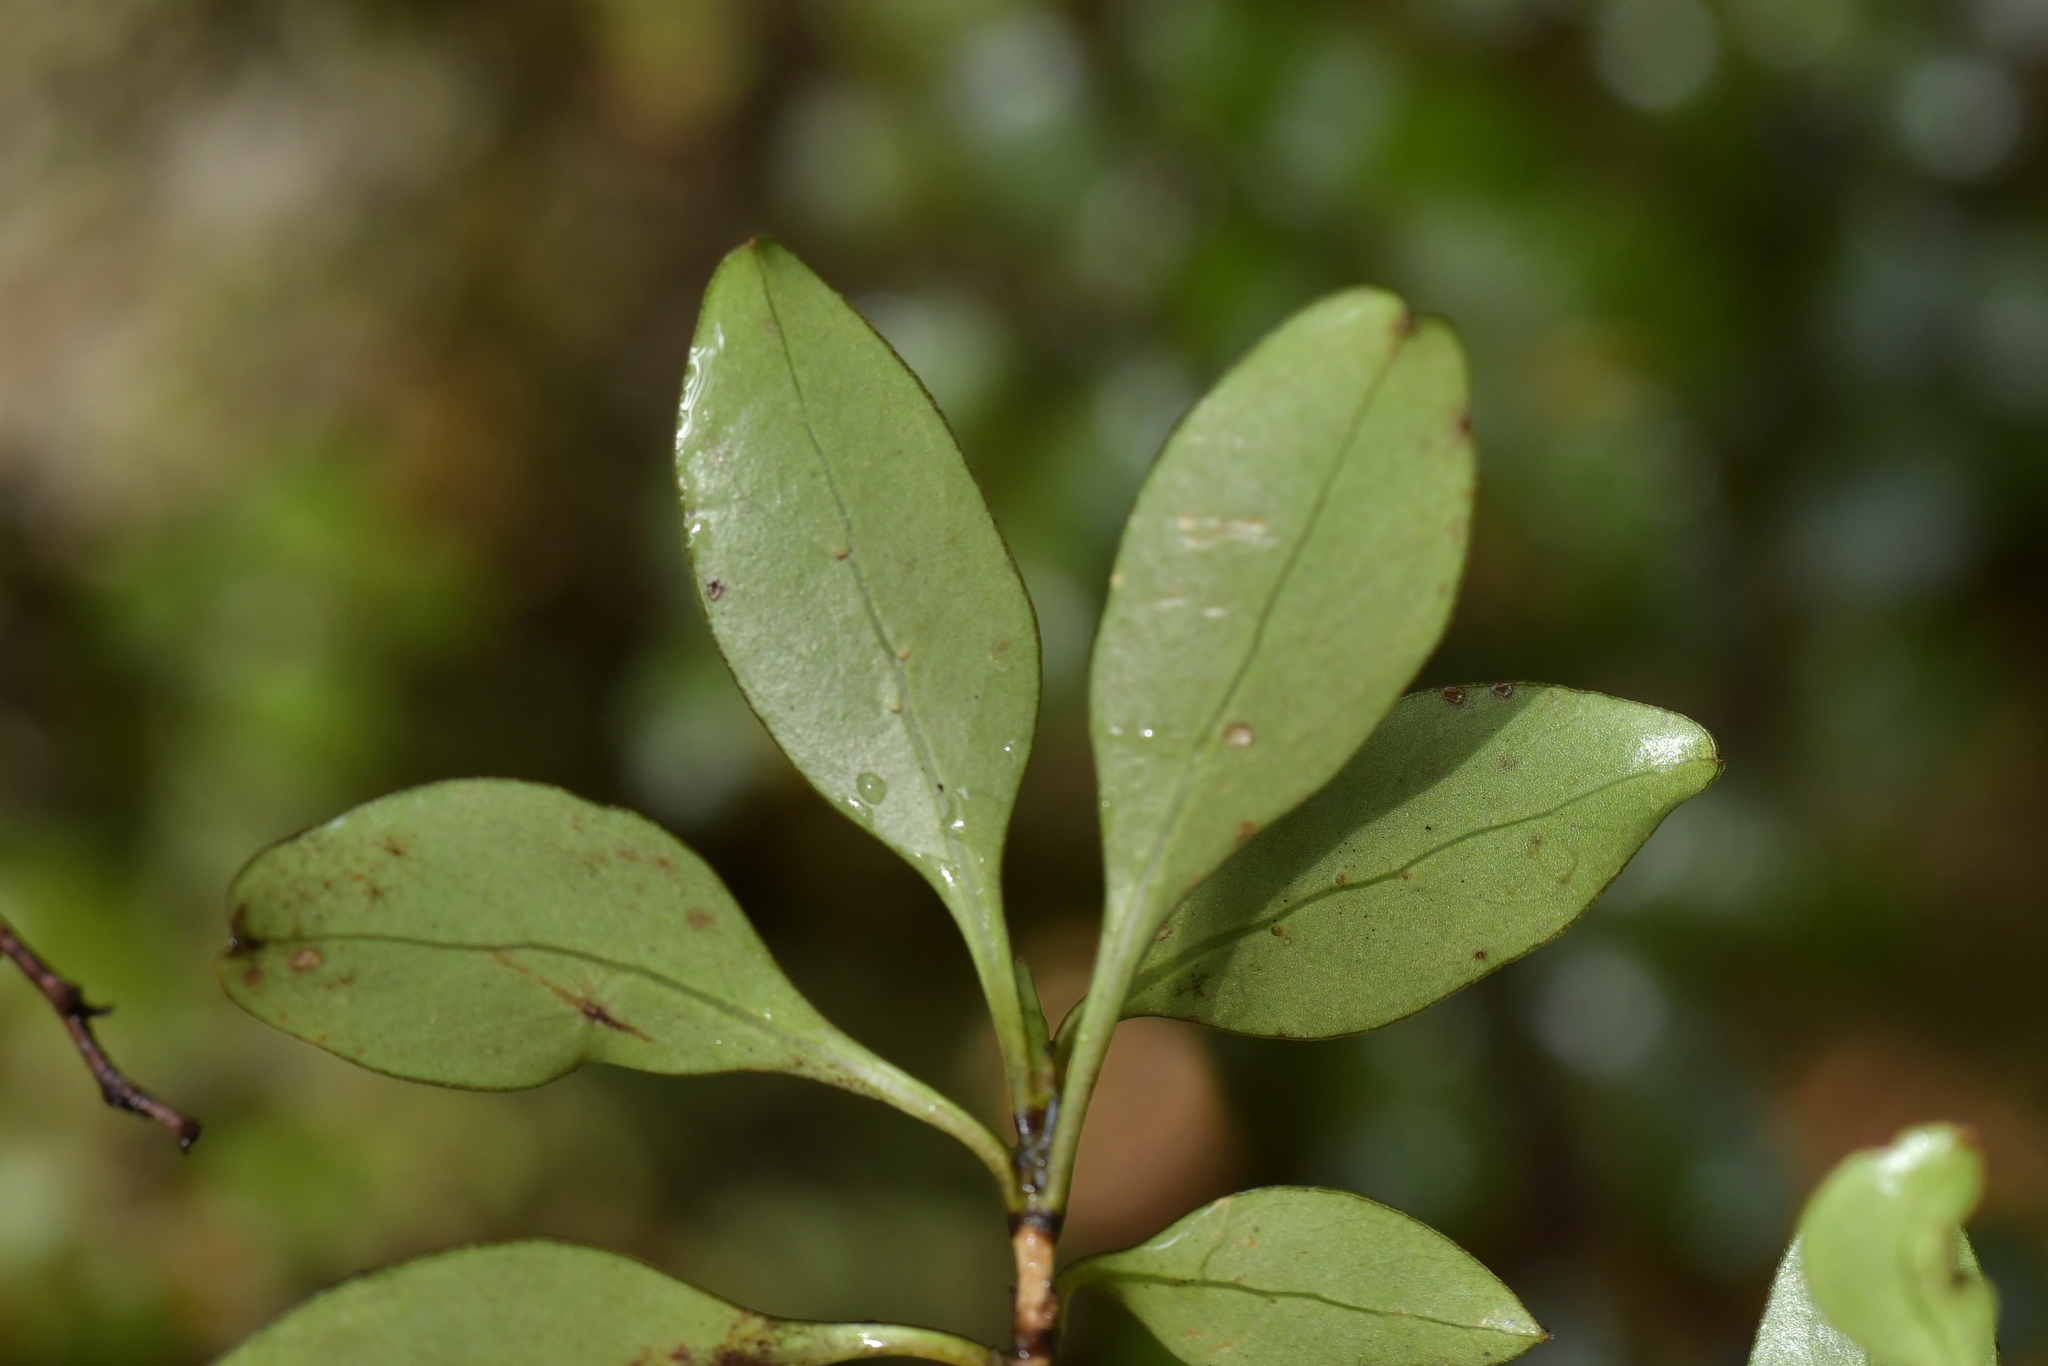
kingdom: Plantae
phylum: Tracheophyta
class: Magnoliopsida
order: Gentianales
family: Rubiaceae
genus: Coprosma
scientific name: Coprosma foetidissima
